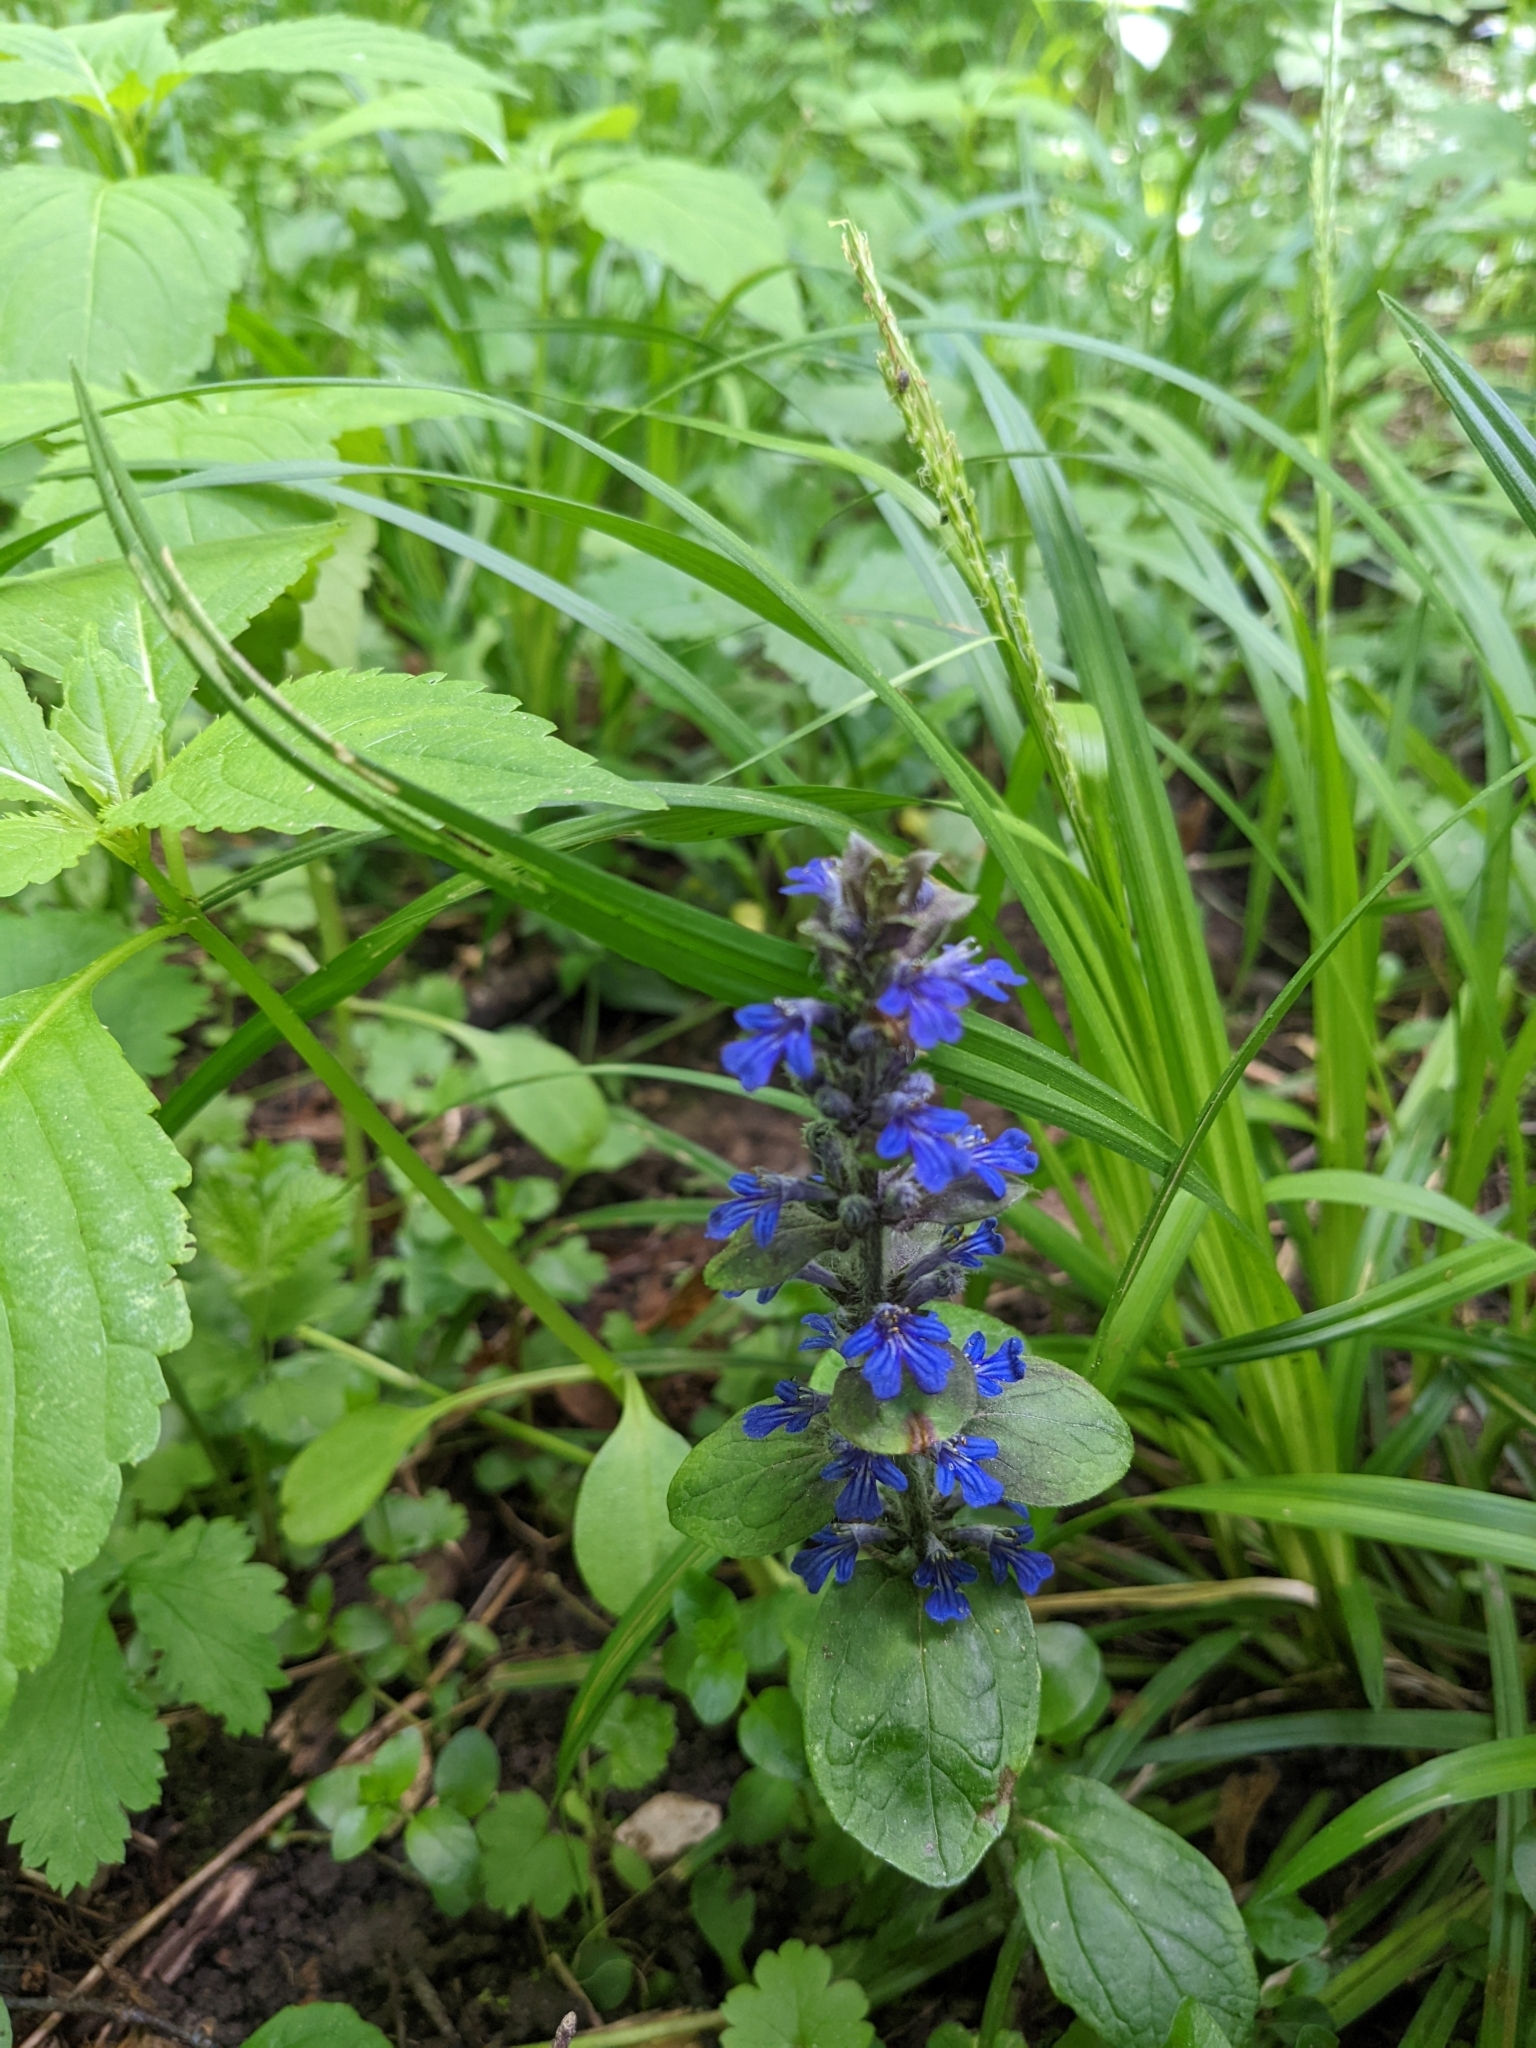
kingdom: Plantae
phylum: Tracheophyta
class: Magnoliopsida
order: Lamiales
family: Lamiaceae
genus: Ajuga
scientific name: Ajuga reptans
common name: Bugle
